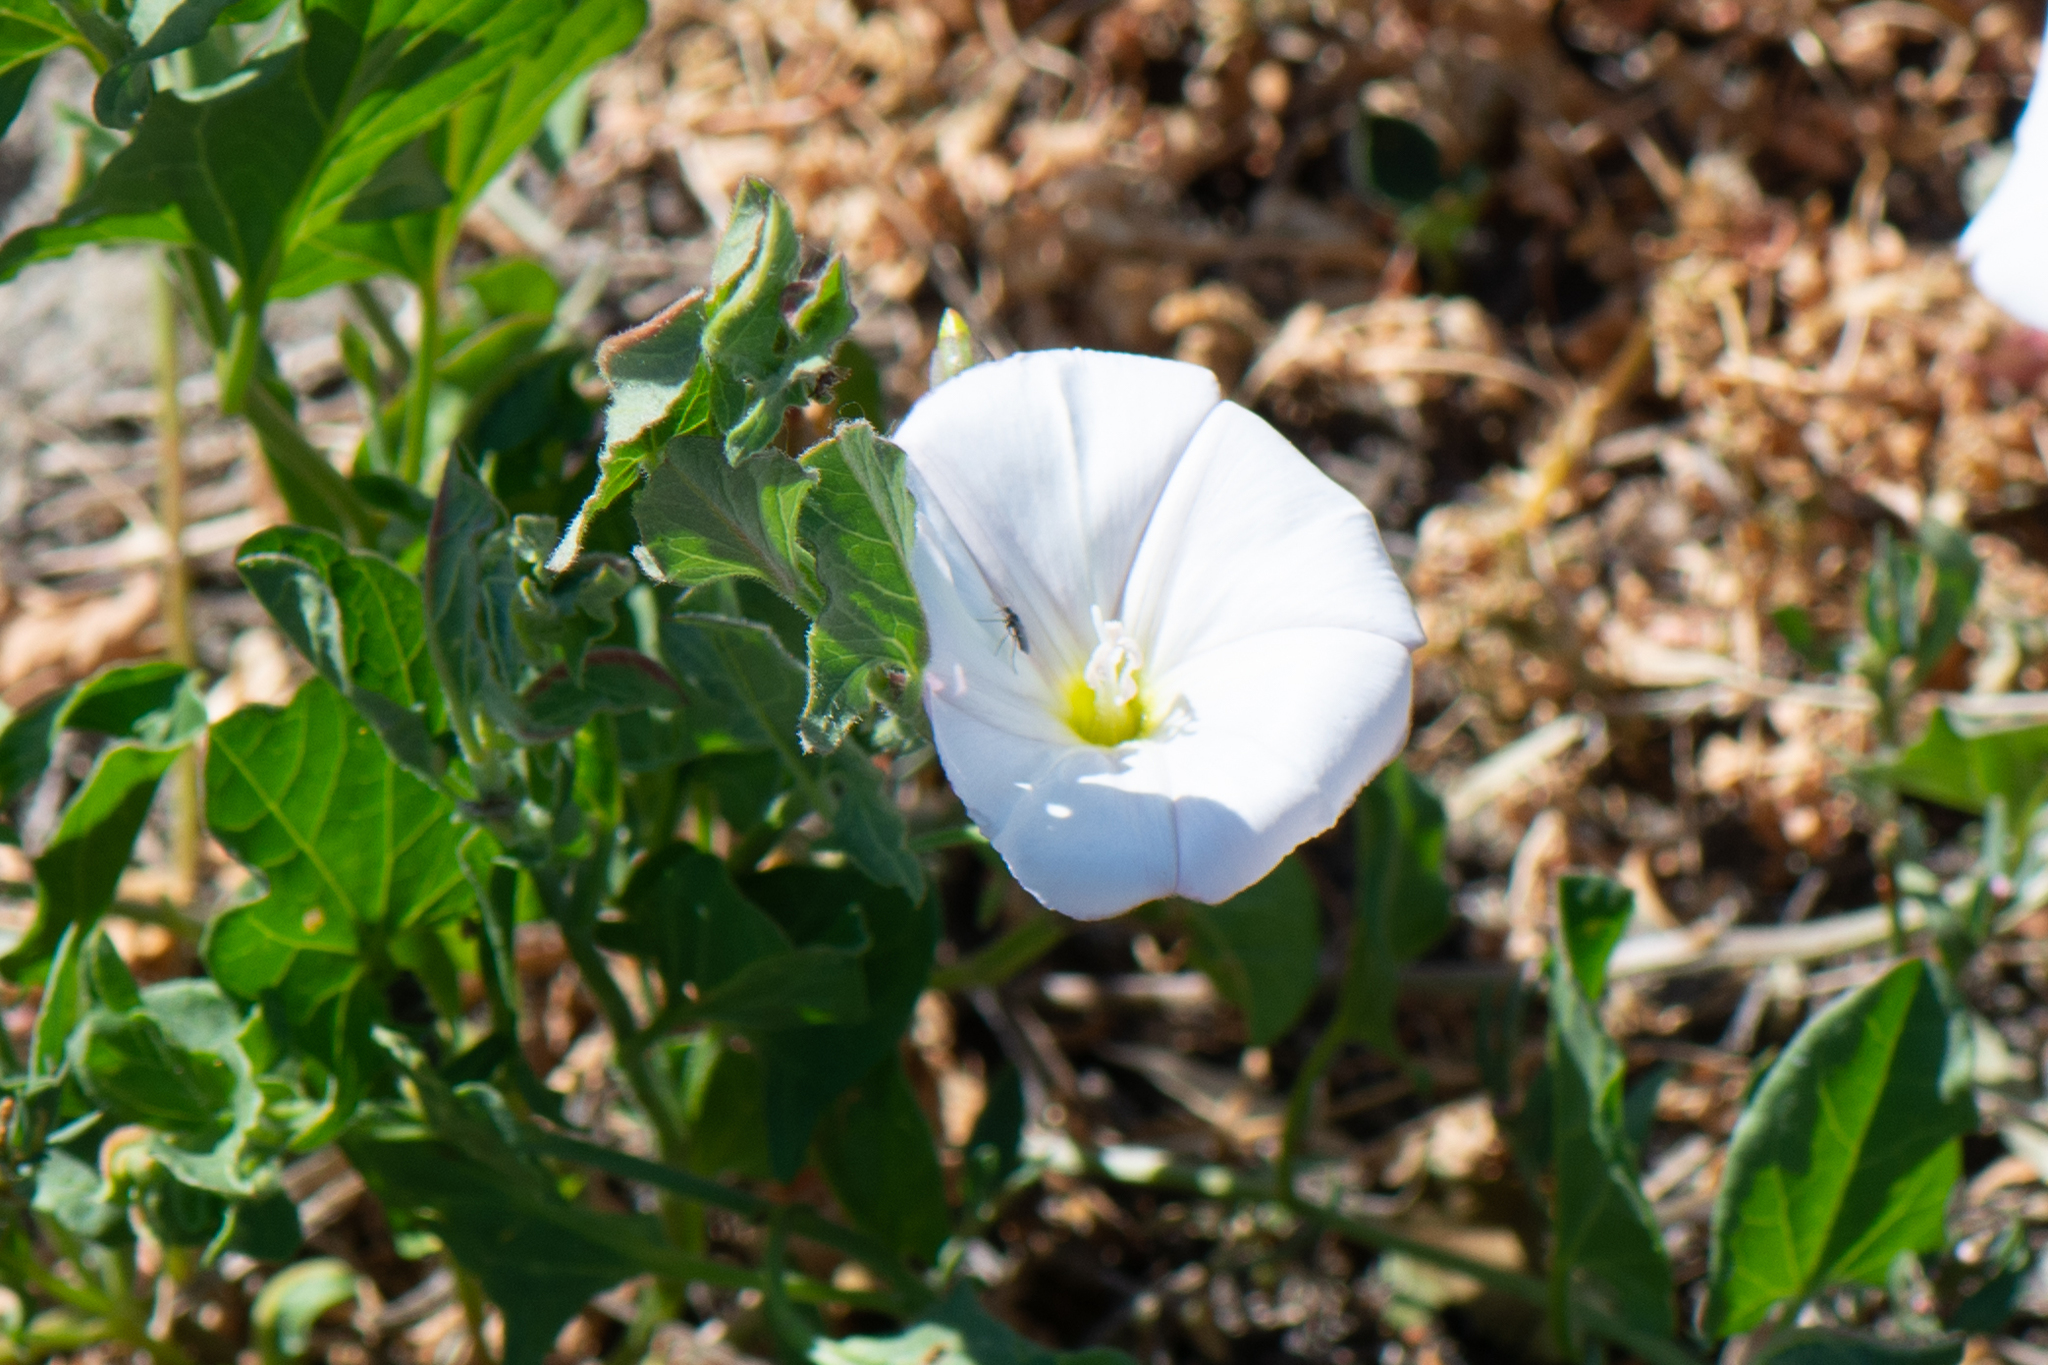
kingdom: Plantae
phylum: Tracheophyta
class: Magnoliopsida
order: Solanales
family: Convolvulaceae
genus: Convolvulus
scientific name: Convolvulus arvensis
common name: Field bindweed
